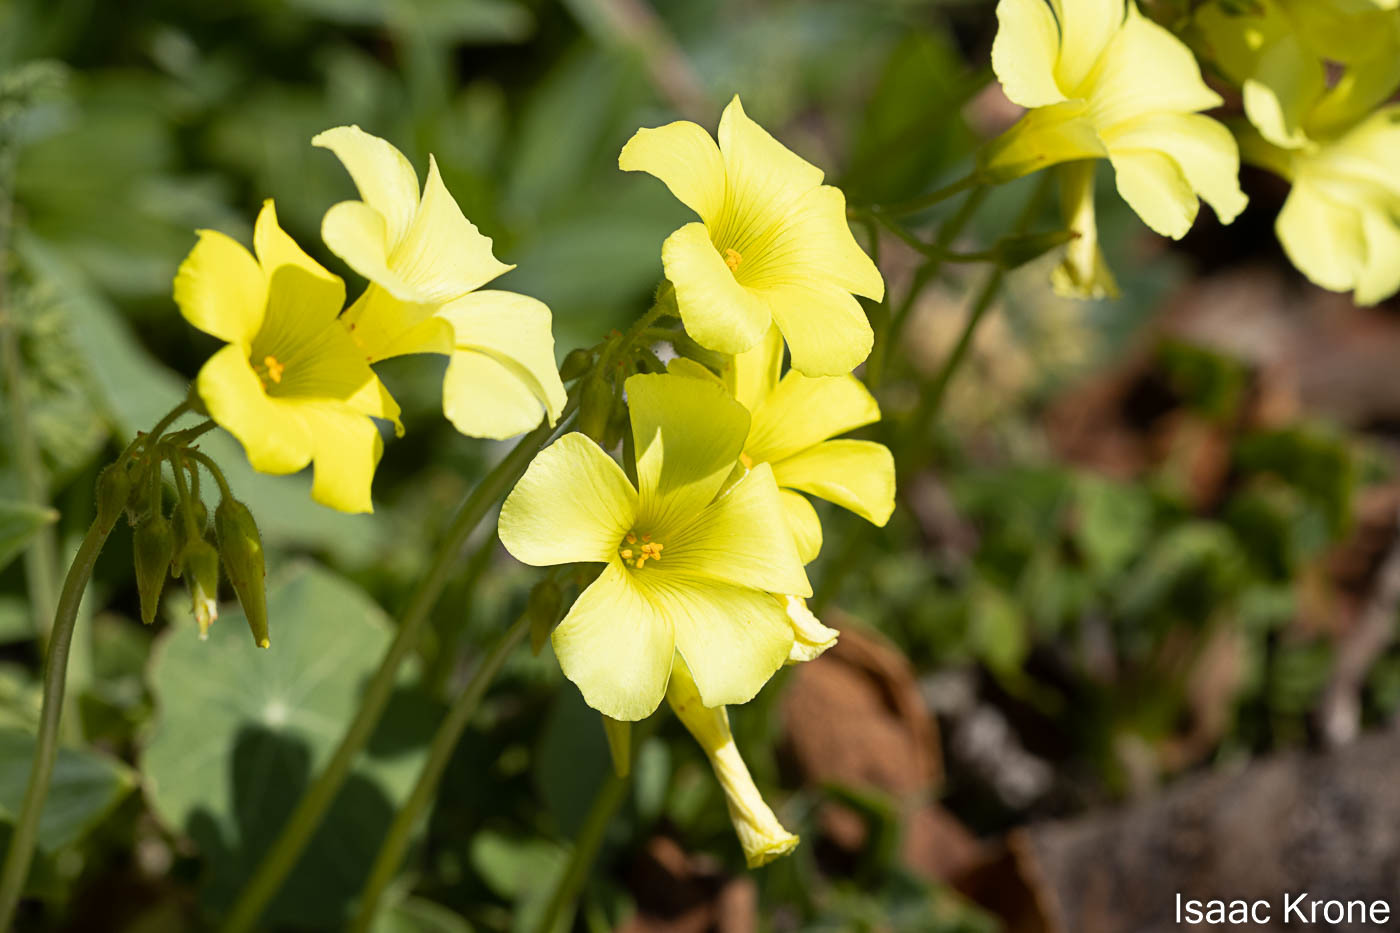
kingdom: Plantae
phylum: Tracheophyta
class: Magnoliopsida
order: Oxalidales
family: Oxalidaceae
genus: Oxalis
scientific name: Oxalis pes-caprae
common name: Bermuda-buttercup
